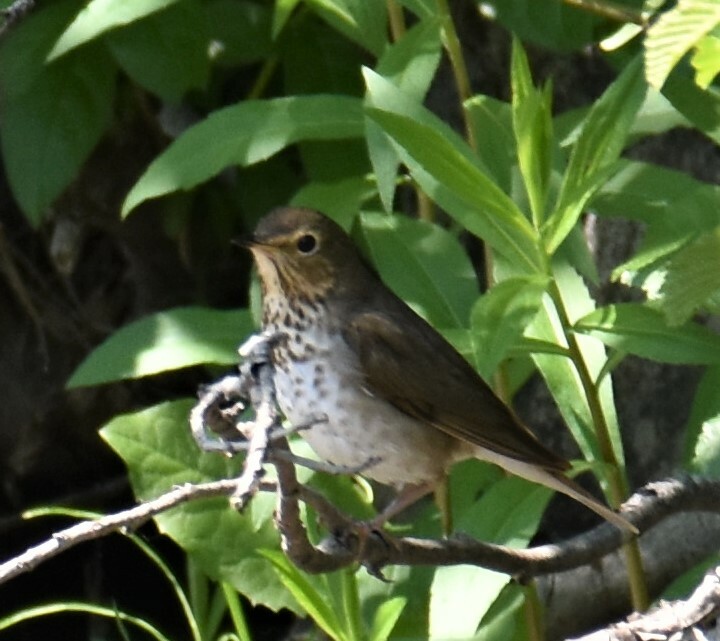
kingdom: Animalia
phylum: Chordata
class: Aves
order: Passeriformes
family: Turdidae
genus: Catharus
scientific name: Catharus ustulatus
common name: Swainson's thrush
